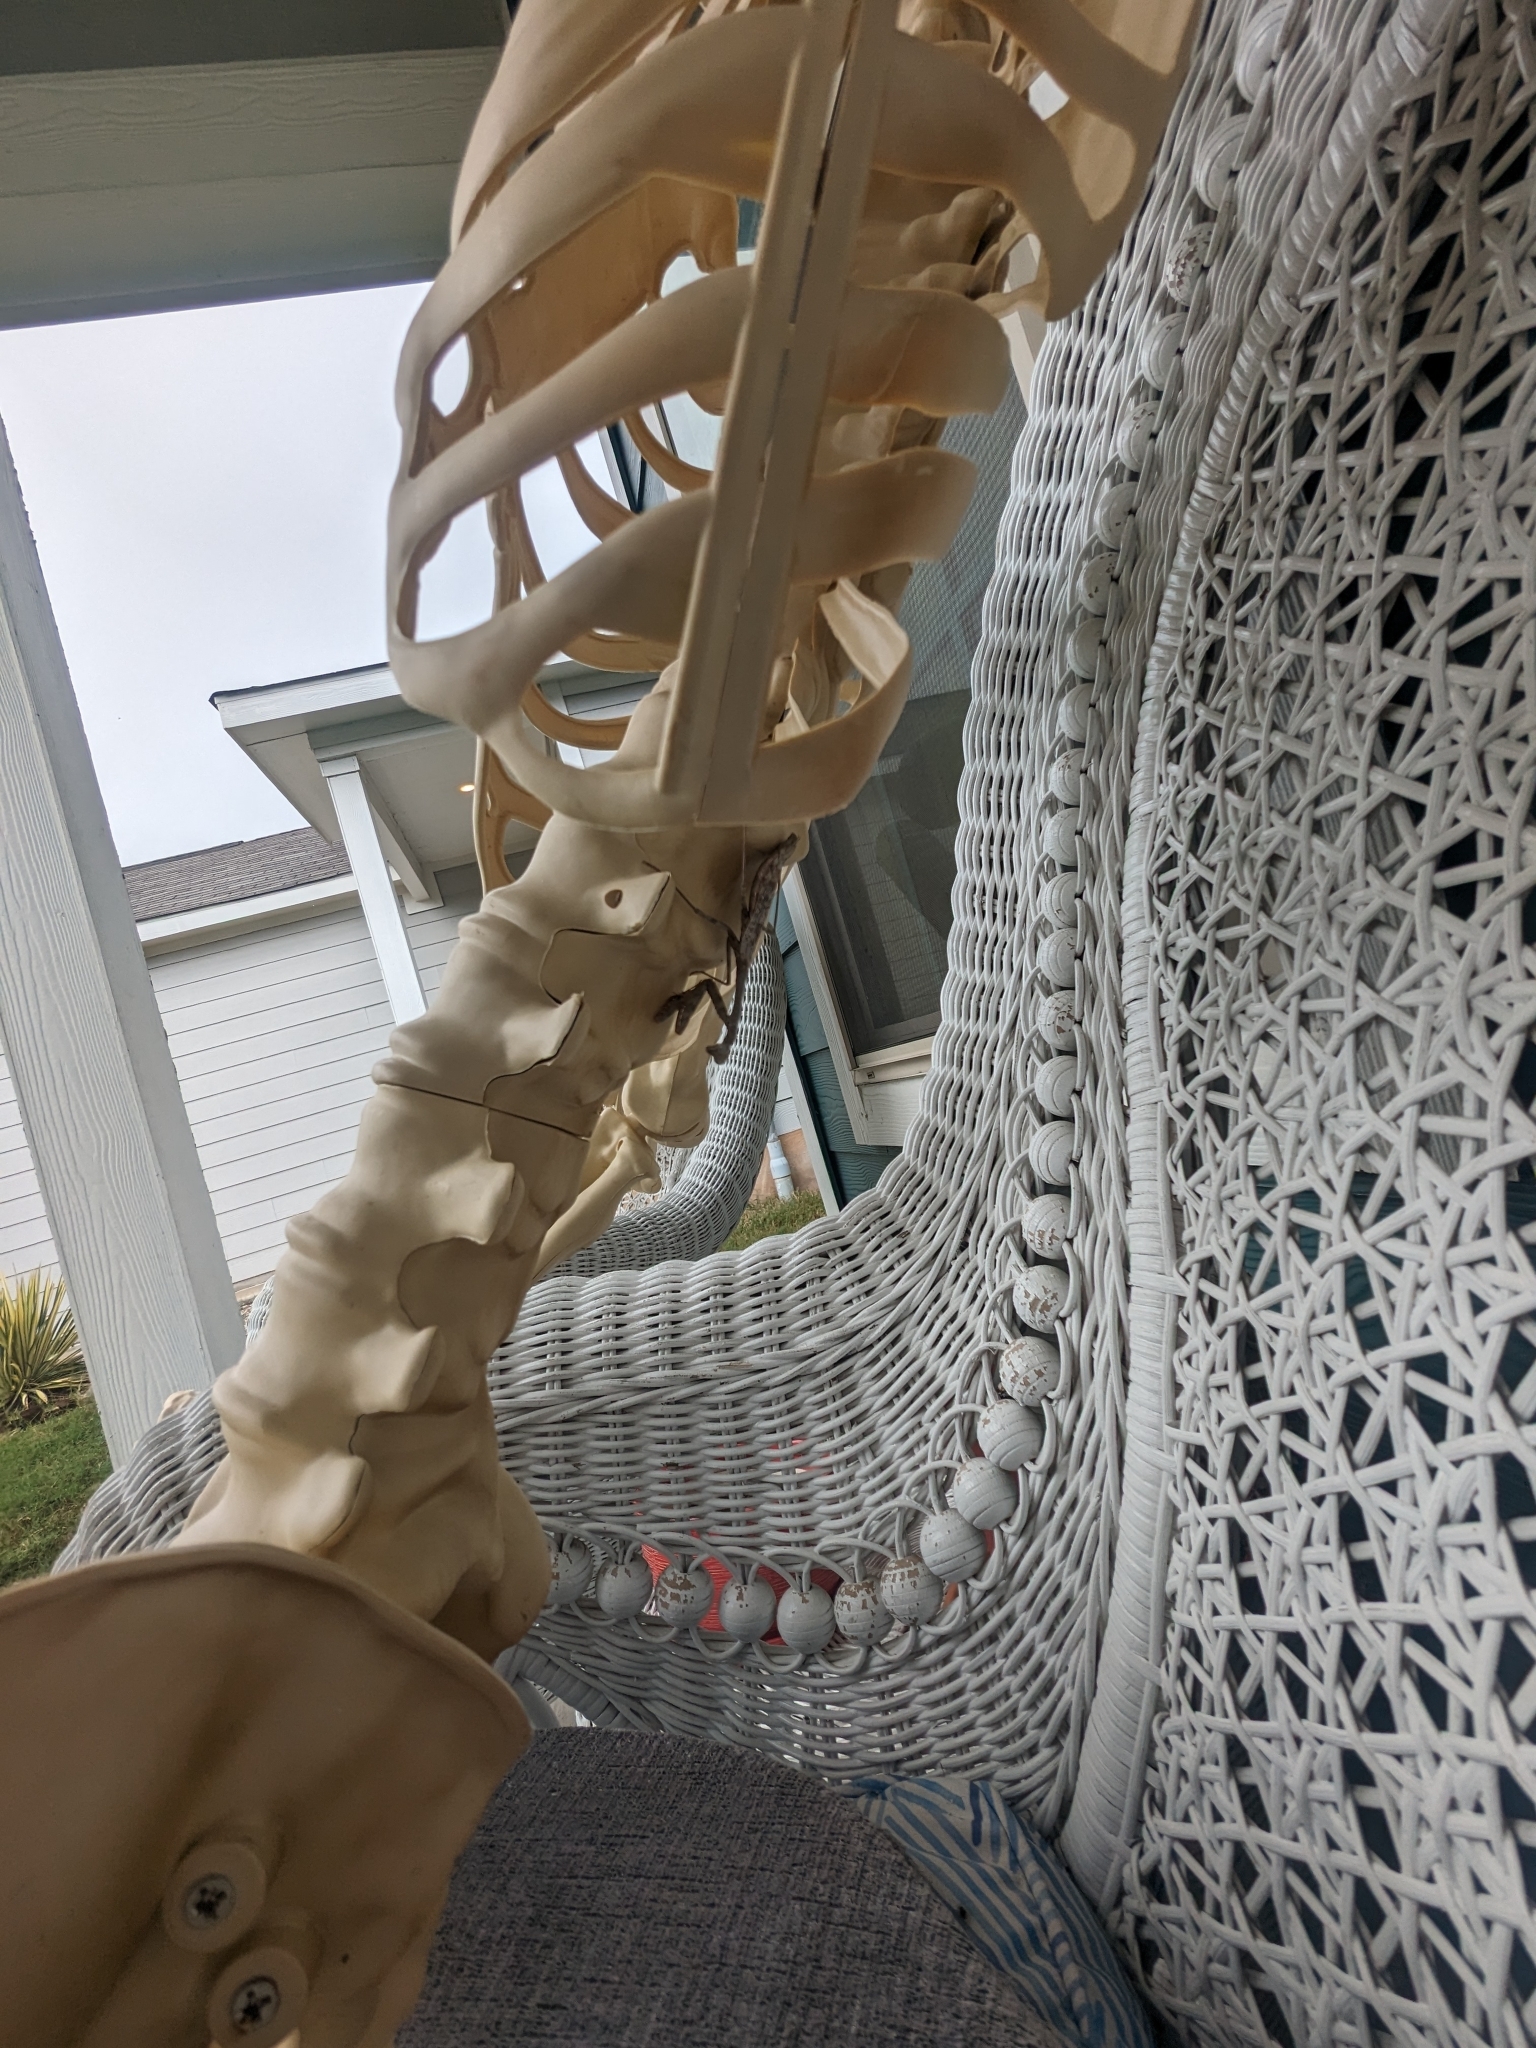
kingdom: Animalia
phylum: Arthropoda
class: Insecta
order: Mantodea
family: Mantidae
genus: Stagmomantis
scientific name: Stagmomantis carolina
